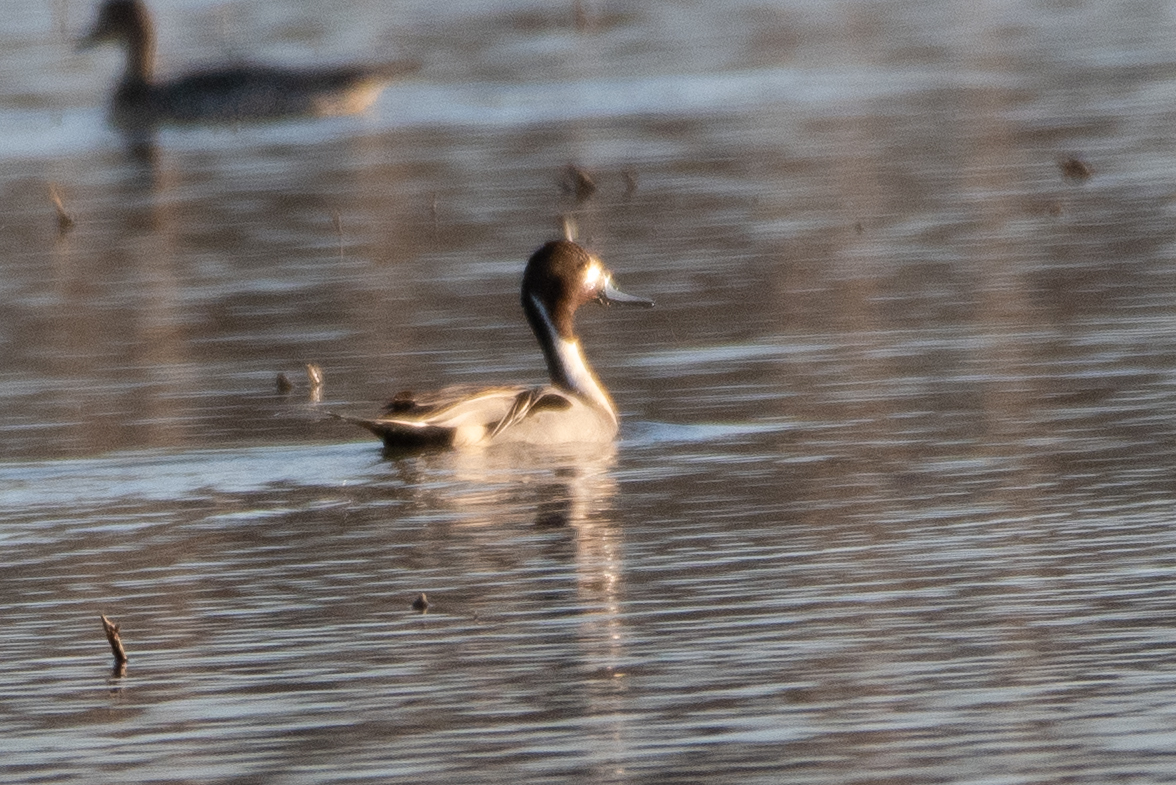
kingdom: Animalia
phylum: Chordata
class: Aves
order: Anseriformes
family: Anatidae
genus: Anas
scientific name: Anas acuta
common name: Northern pintail
